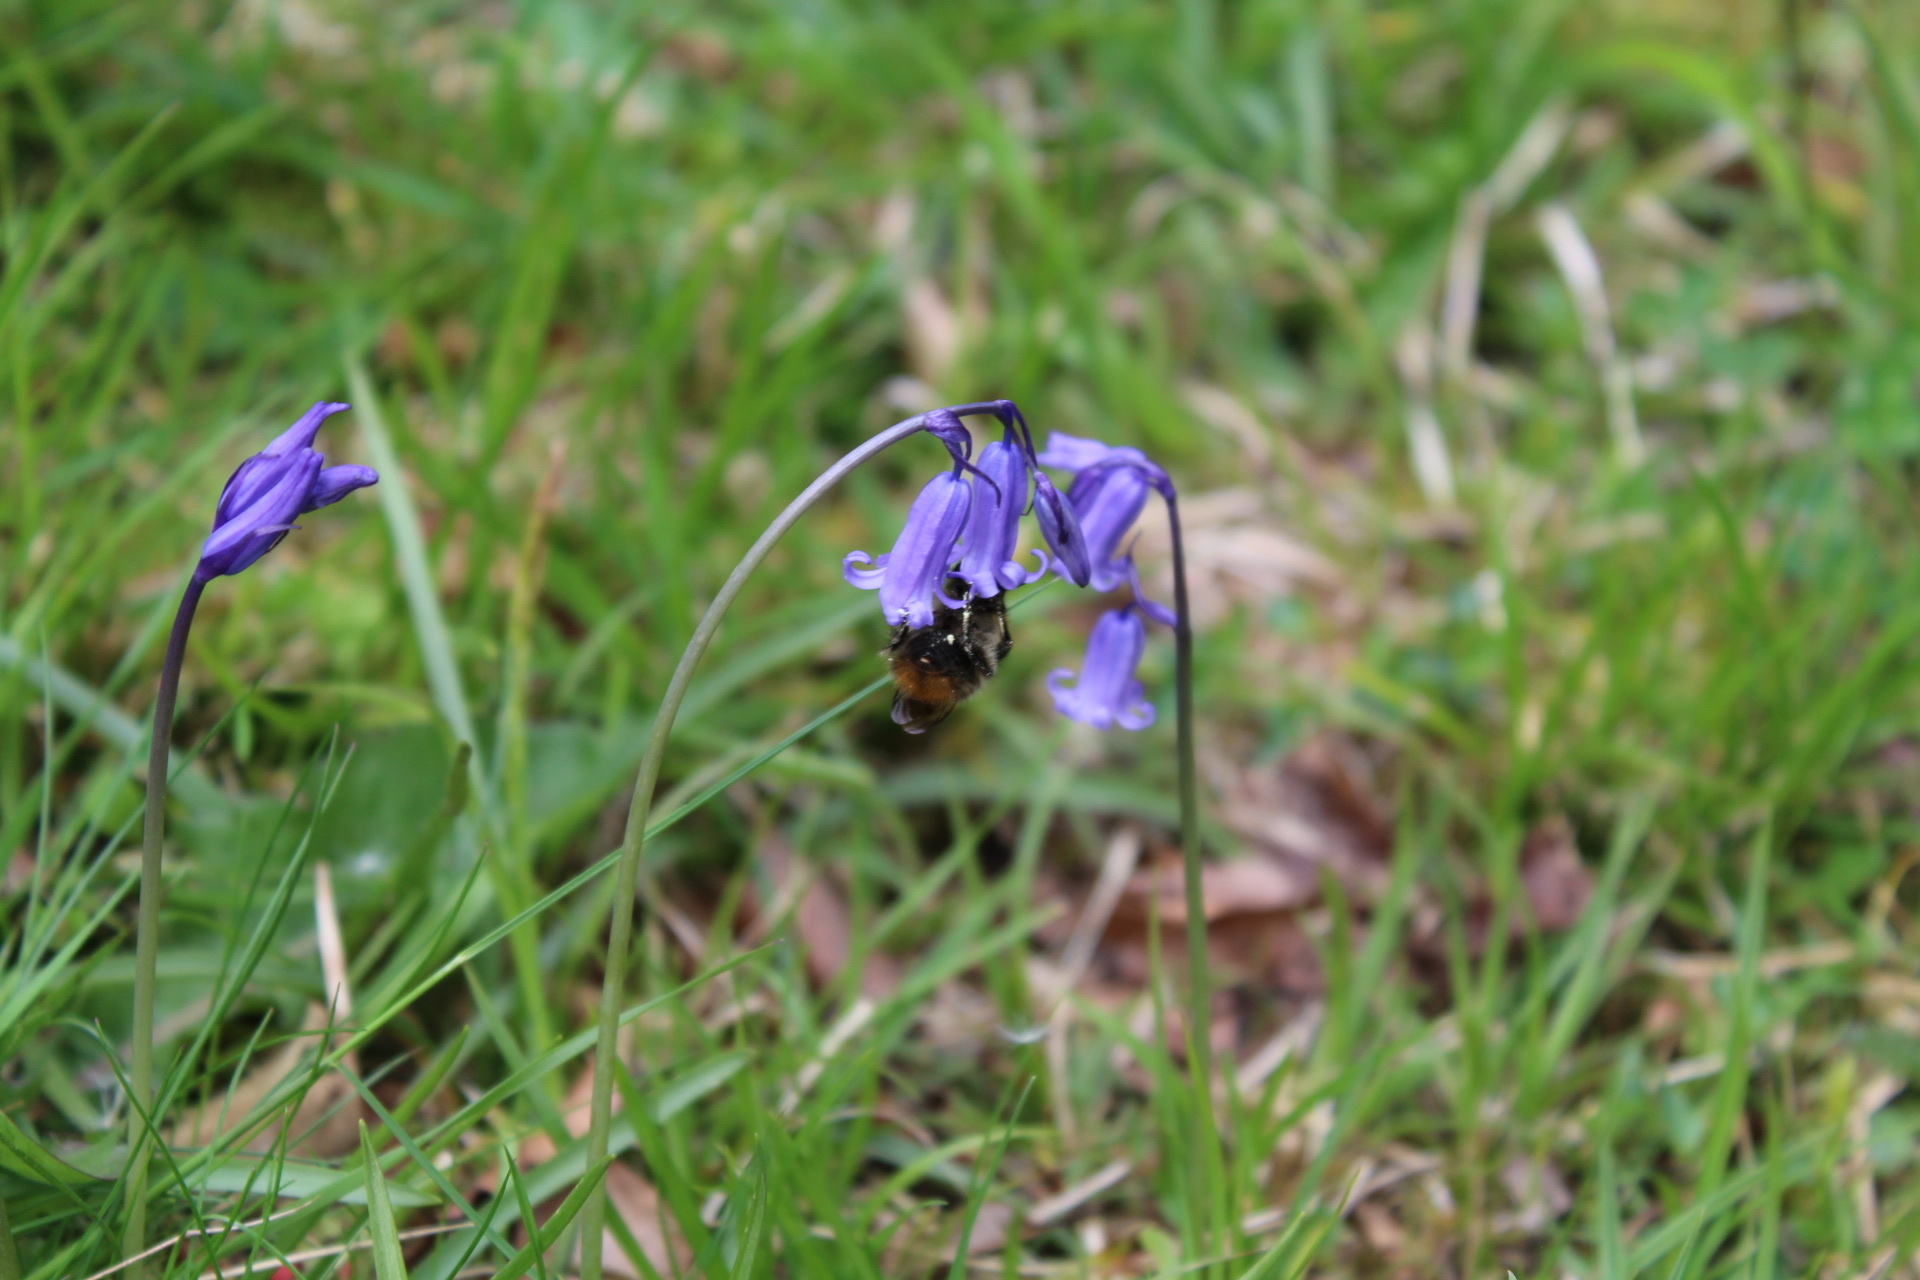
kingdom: Animalia
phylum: Arthropoda
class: Insecta
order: Hymenoptera
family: Apidae
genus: Bombus
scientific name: Bombus lapidarius
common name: Large red-tailed humble-bee
